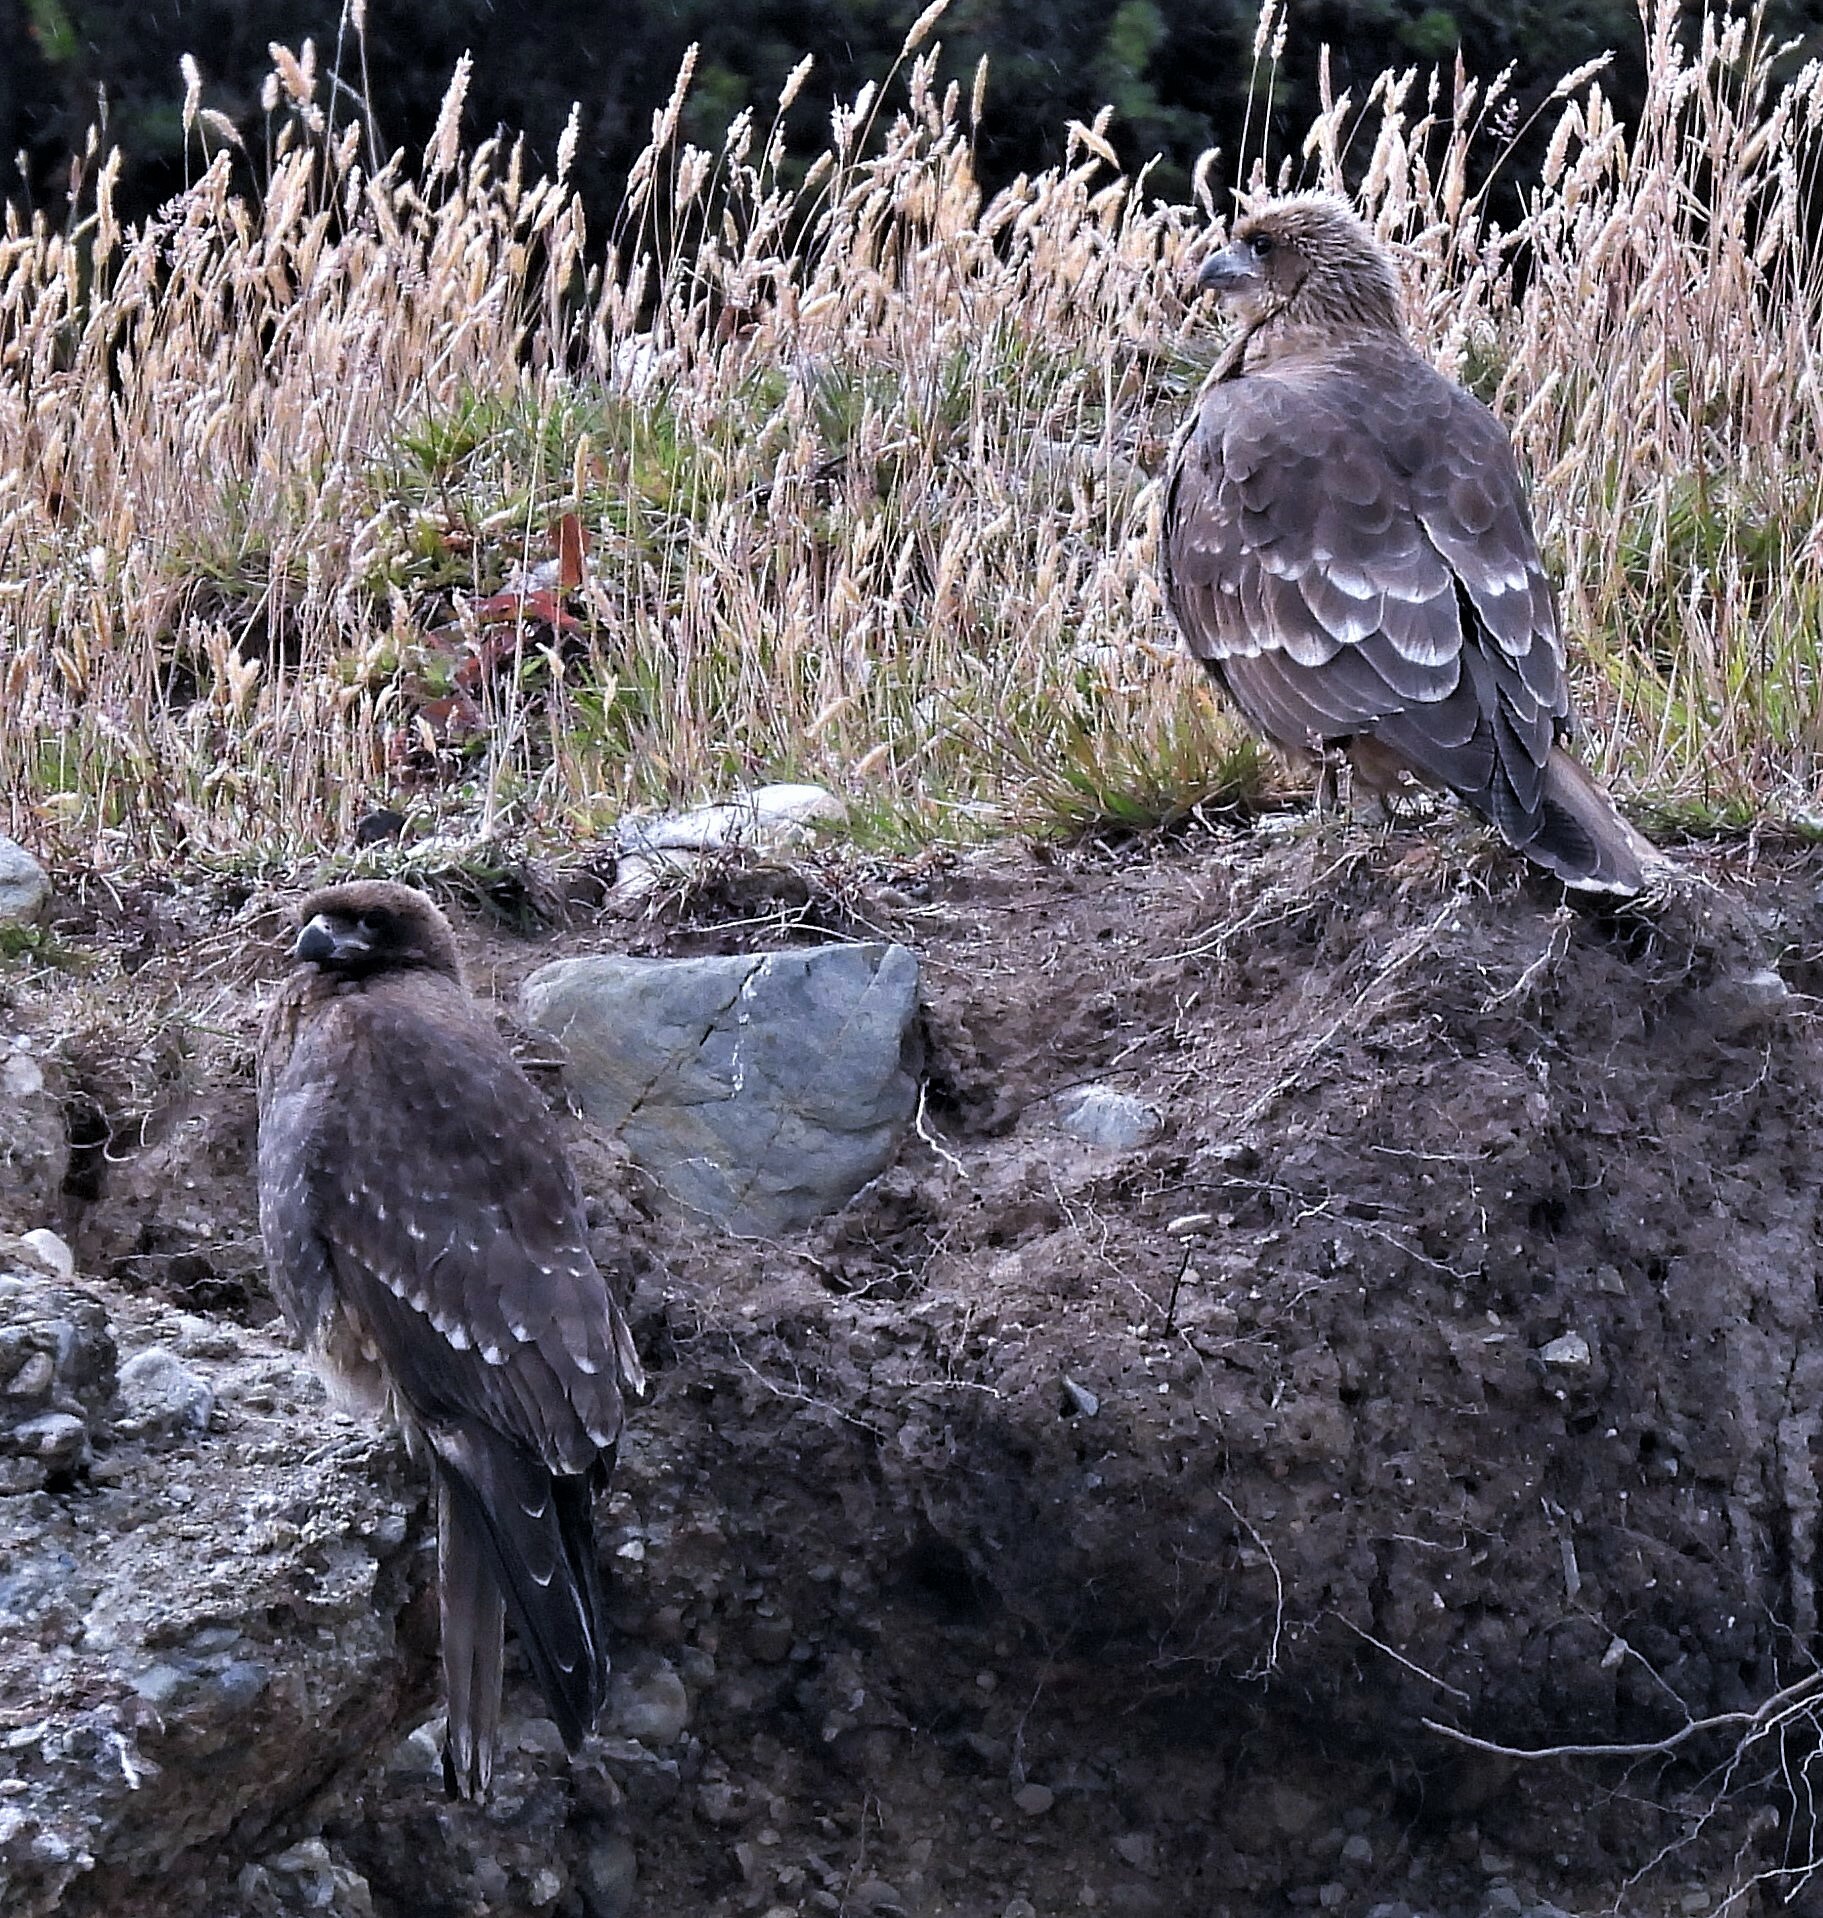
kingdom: Animalia
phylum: Chordata
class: Aves
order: Falconiformes
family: Falconidae
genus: Daptrius
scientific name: Daptrius
